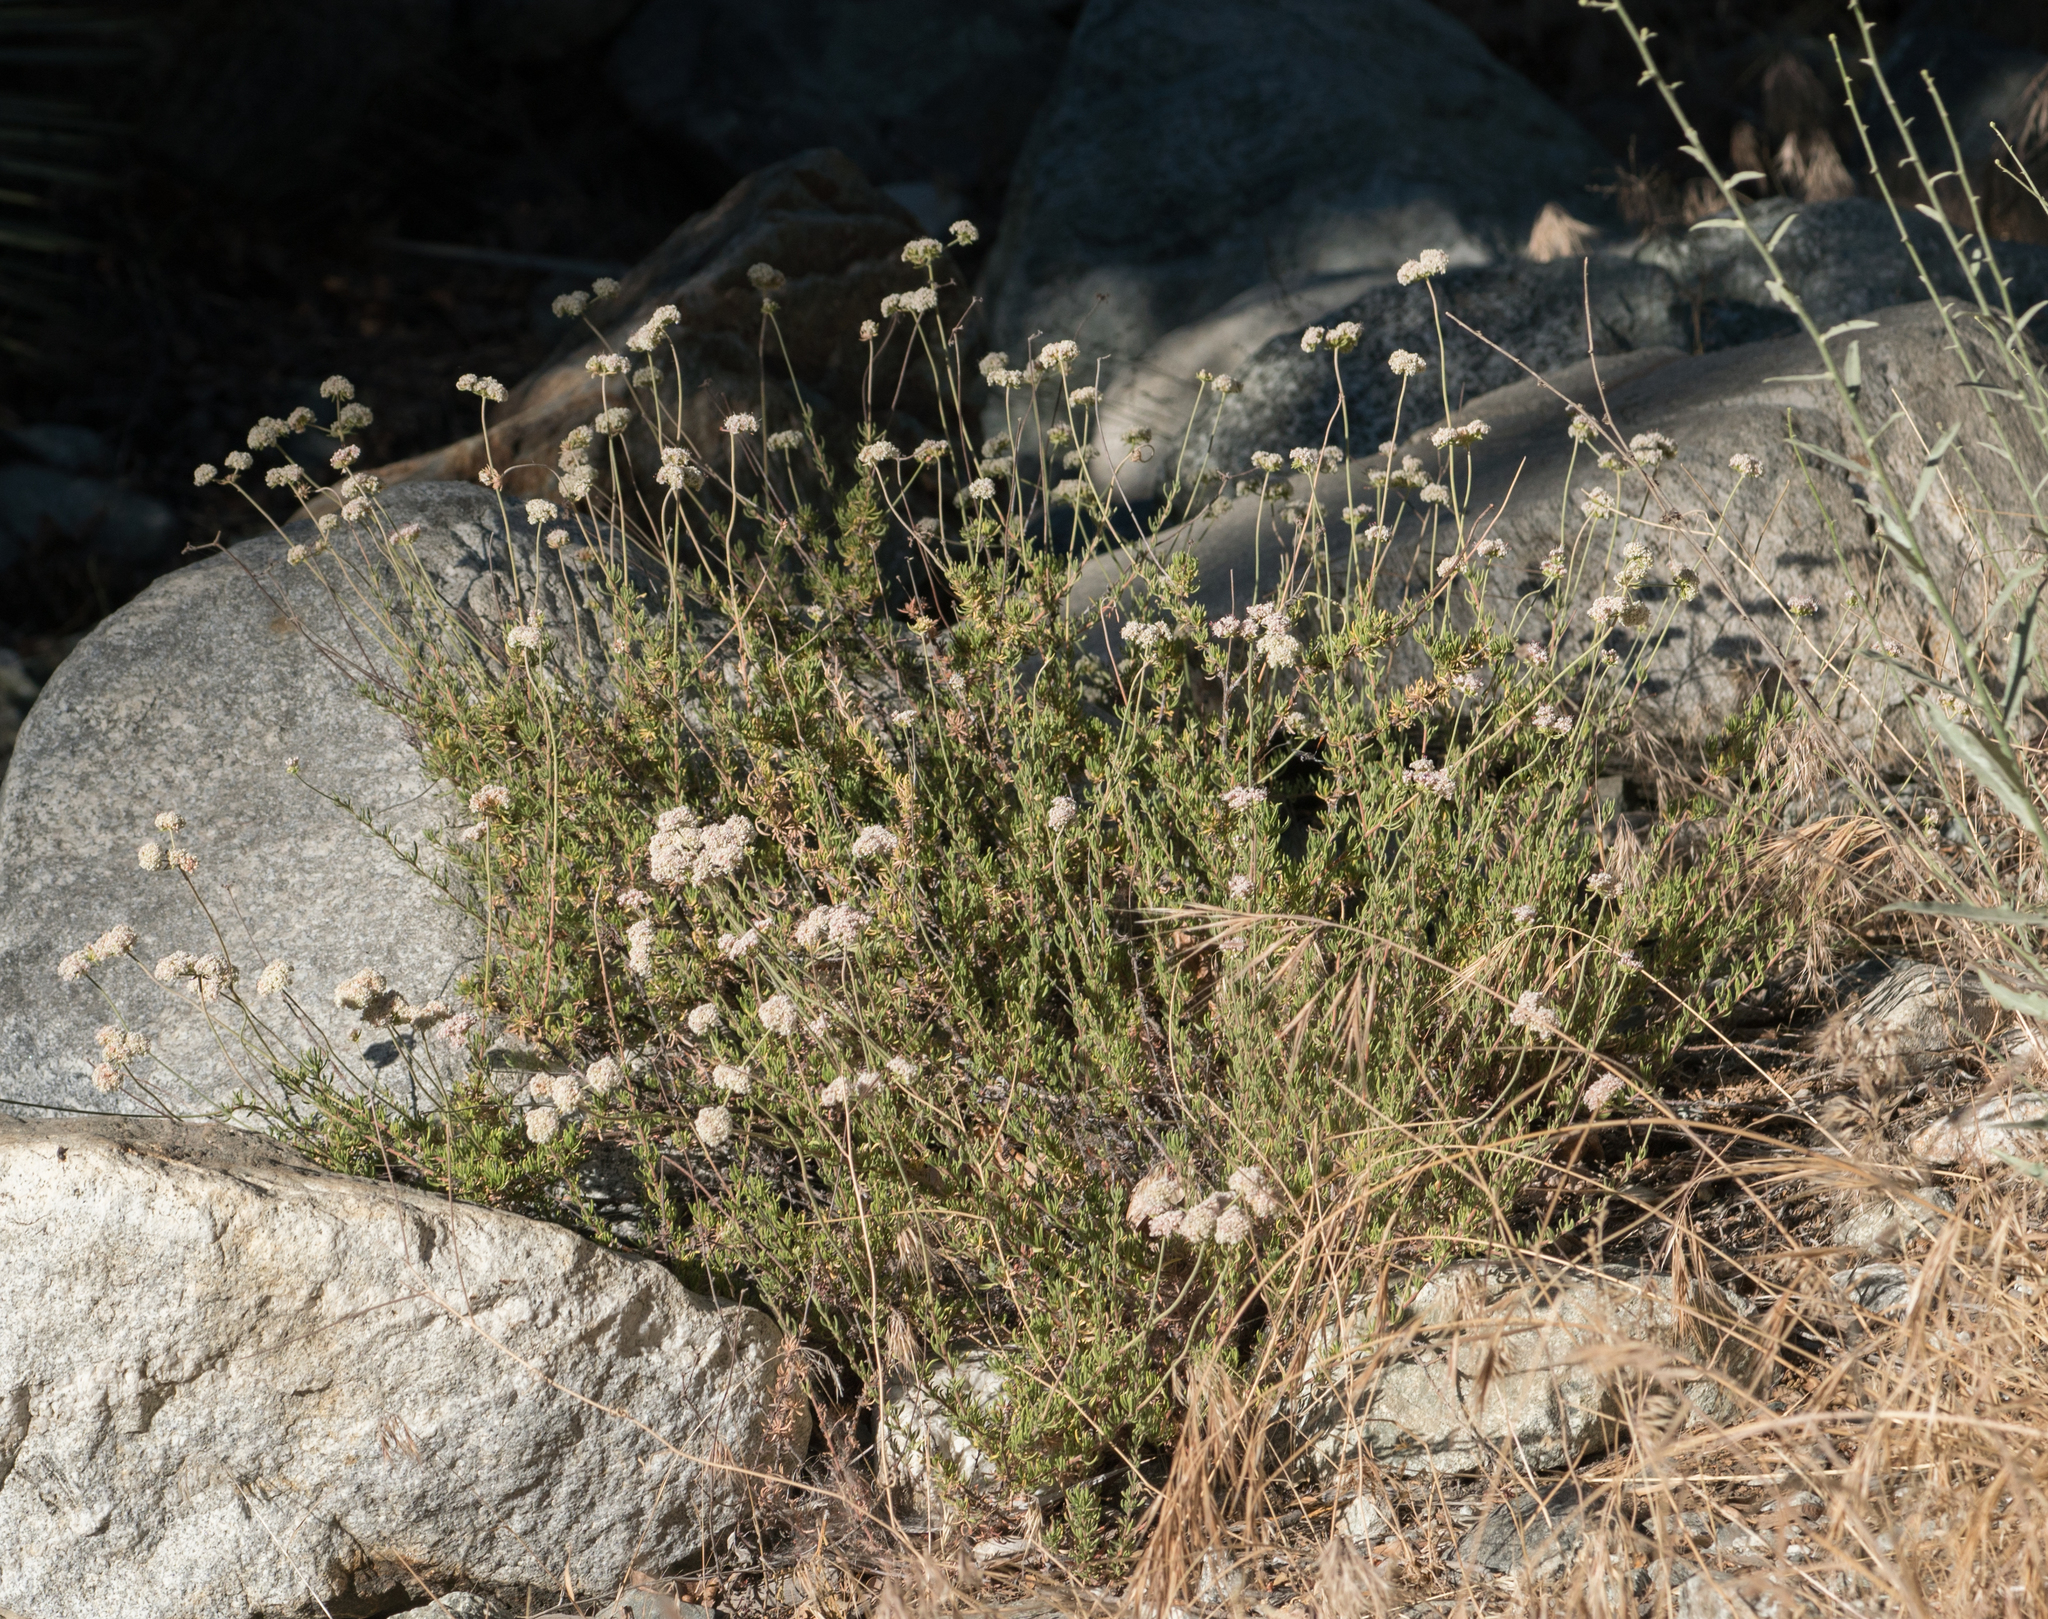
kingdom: Plantae
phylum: Tracheophyta
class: Magnoliopsida
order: Caryophyllales
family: Polygonaceae
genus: Eriogonum
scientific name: Eriogonum fasciculatum
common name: California wild buckwheat
